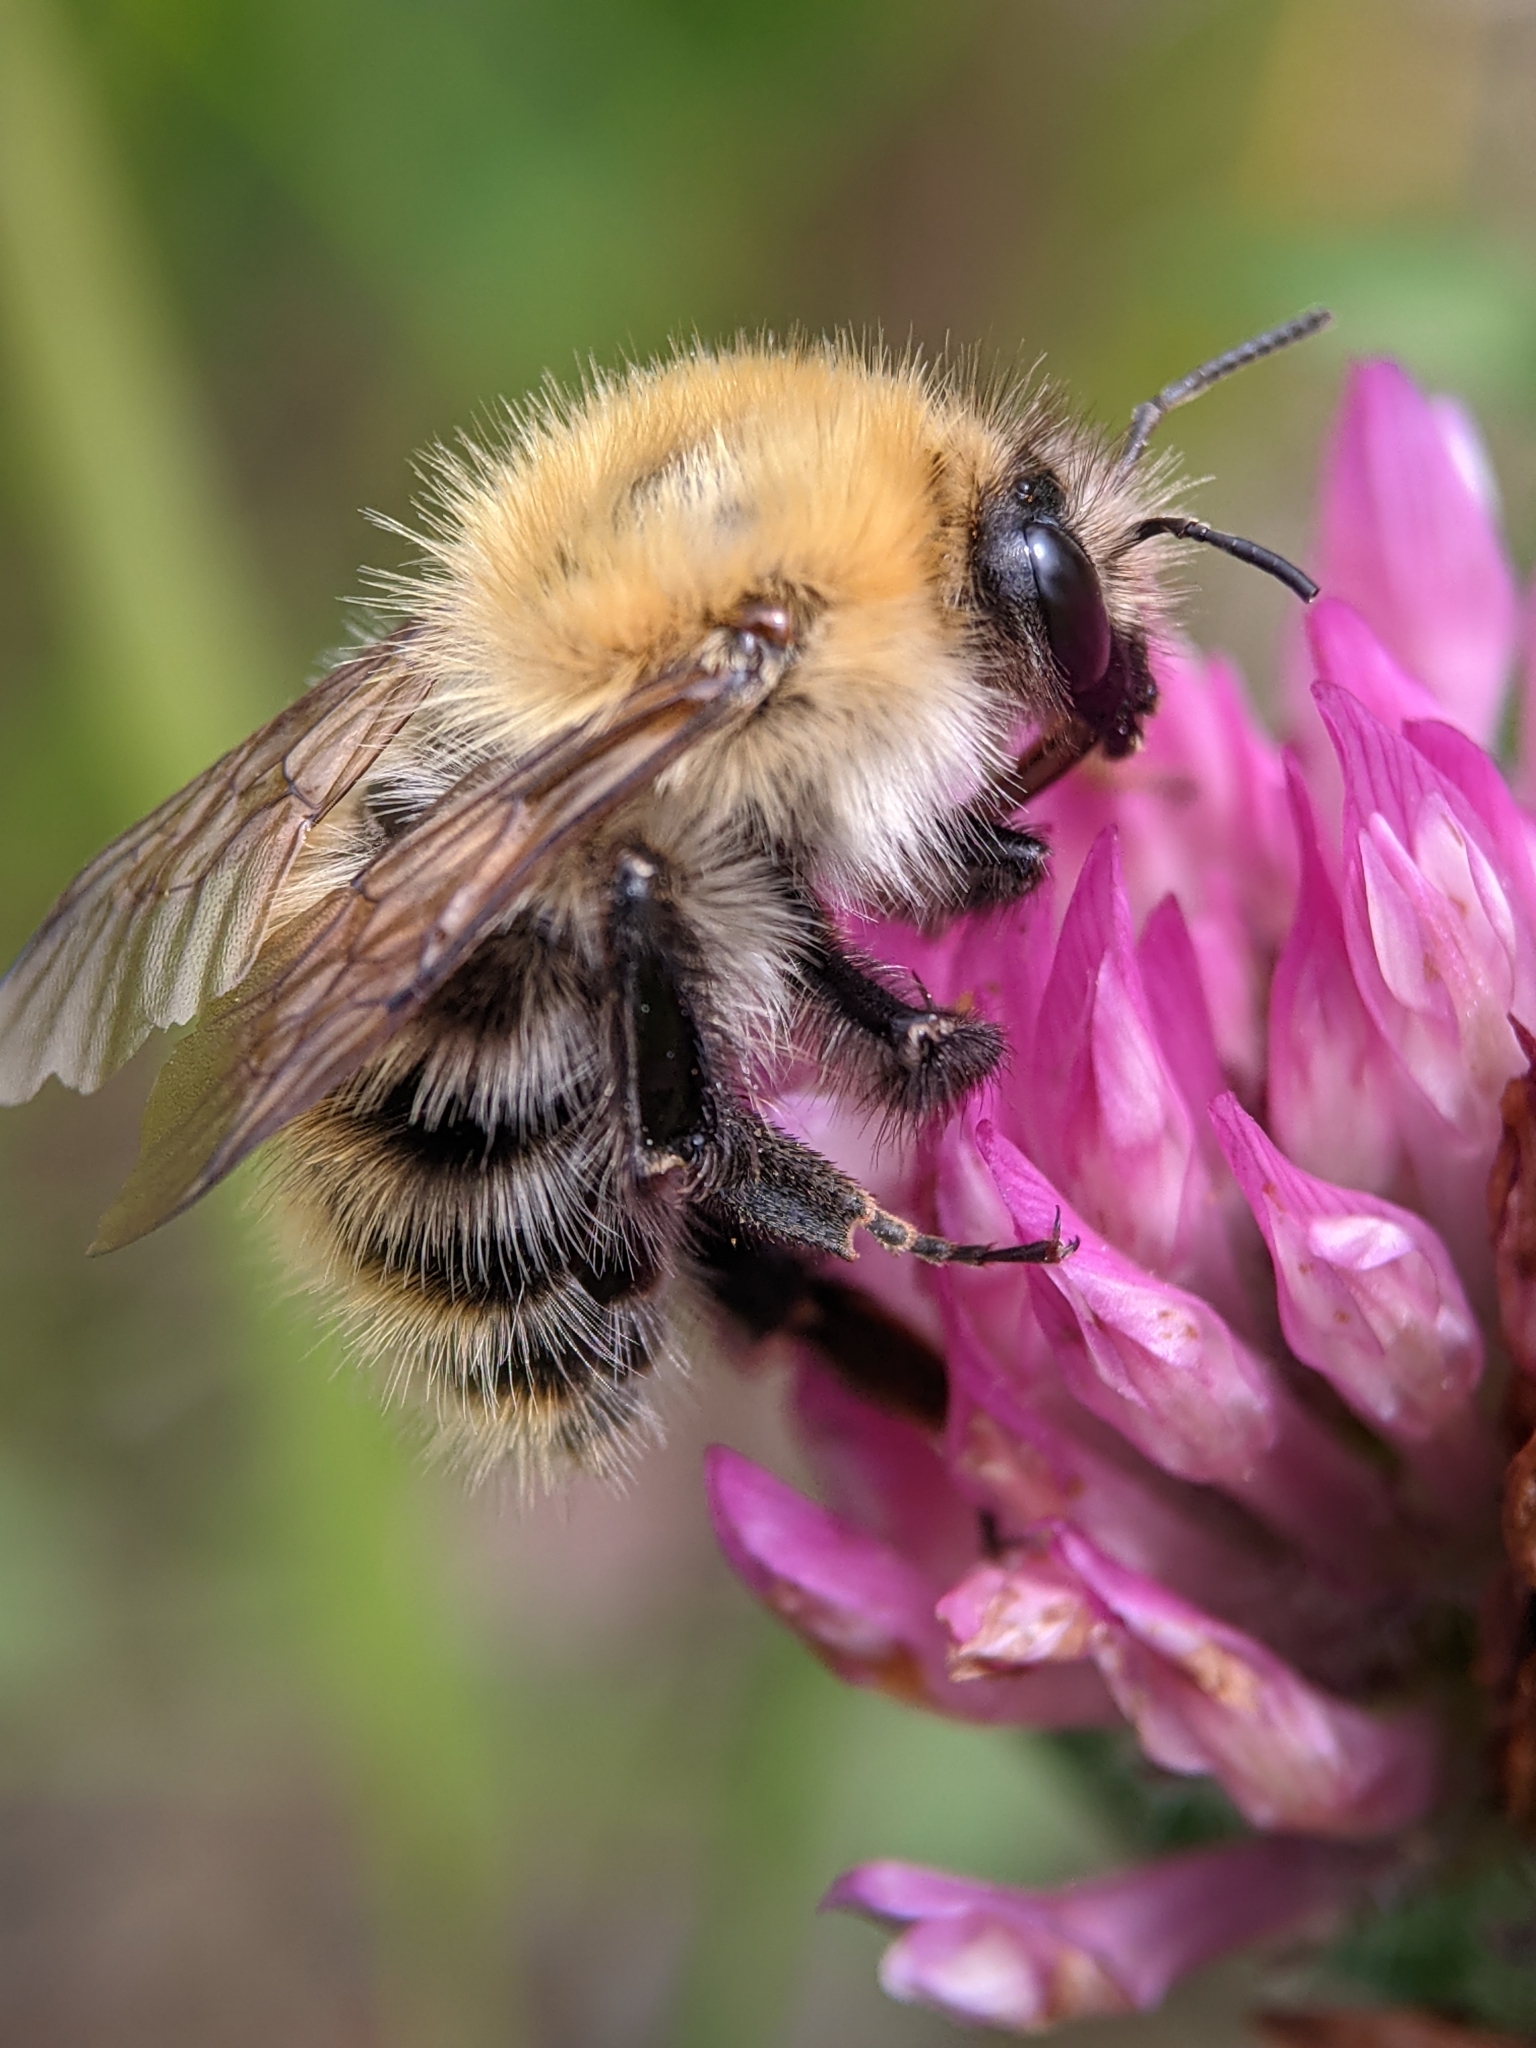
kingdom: Animalia
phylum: Arthropoda
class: Insecta
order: Hymenoptera
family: Apidae
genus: Bombus
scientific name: Bombus pascuorum
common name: Common carder bee
